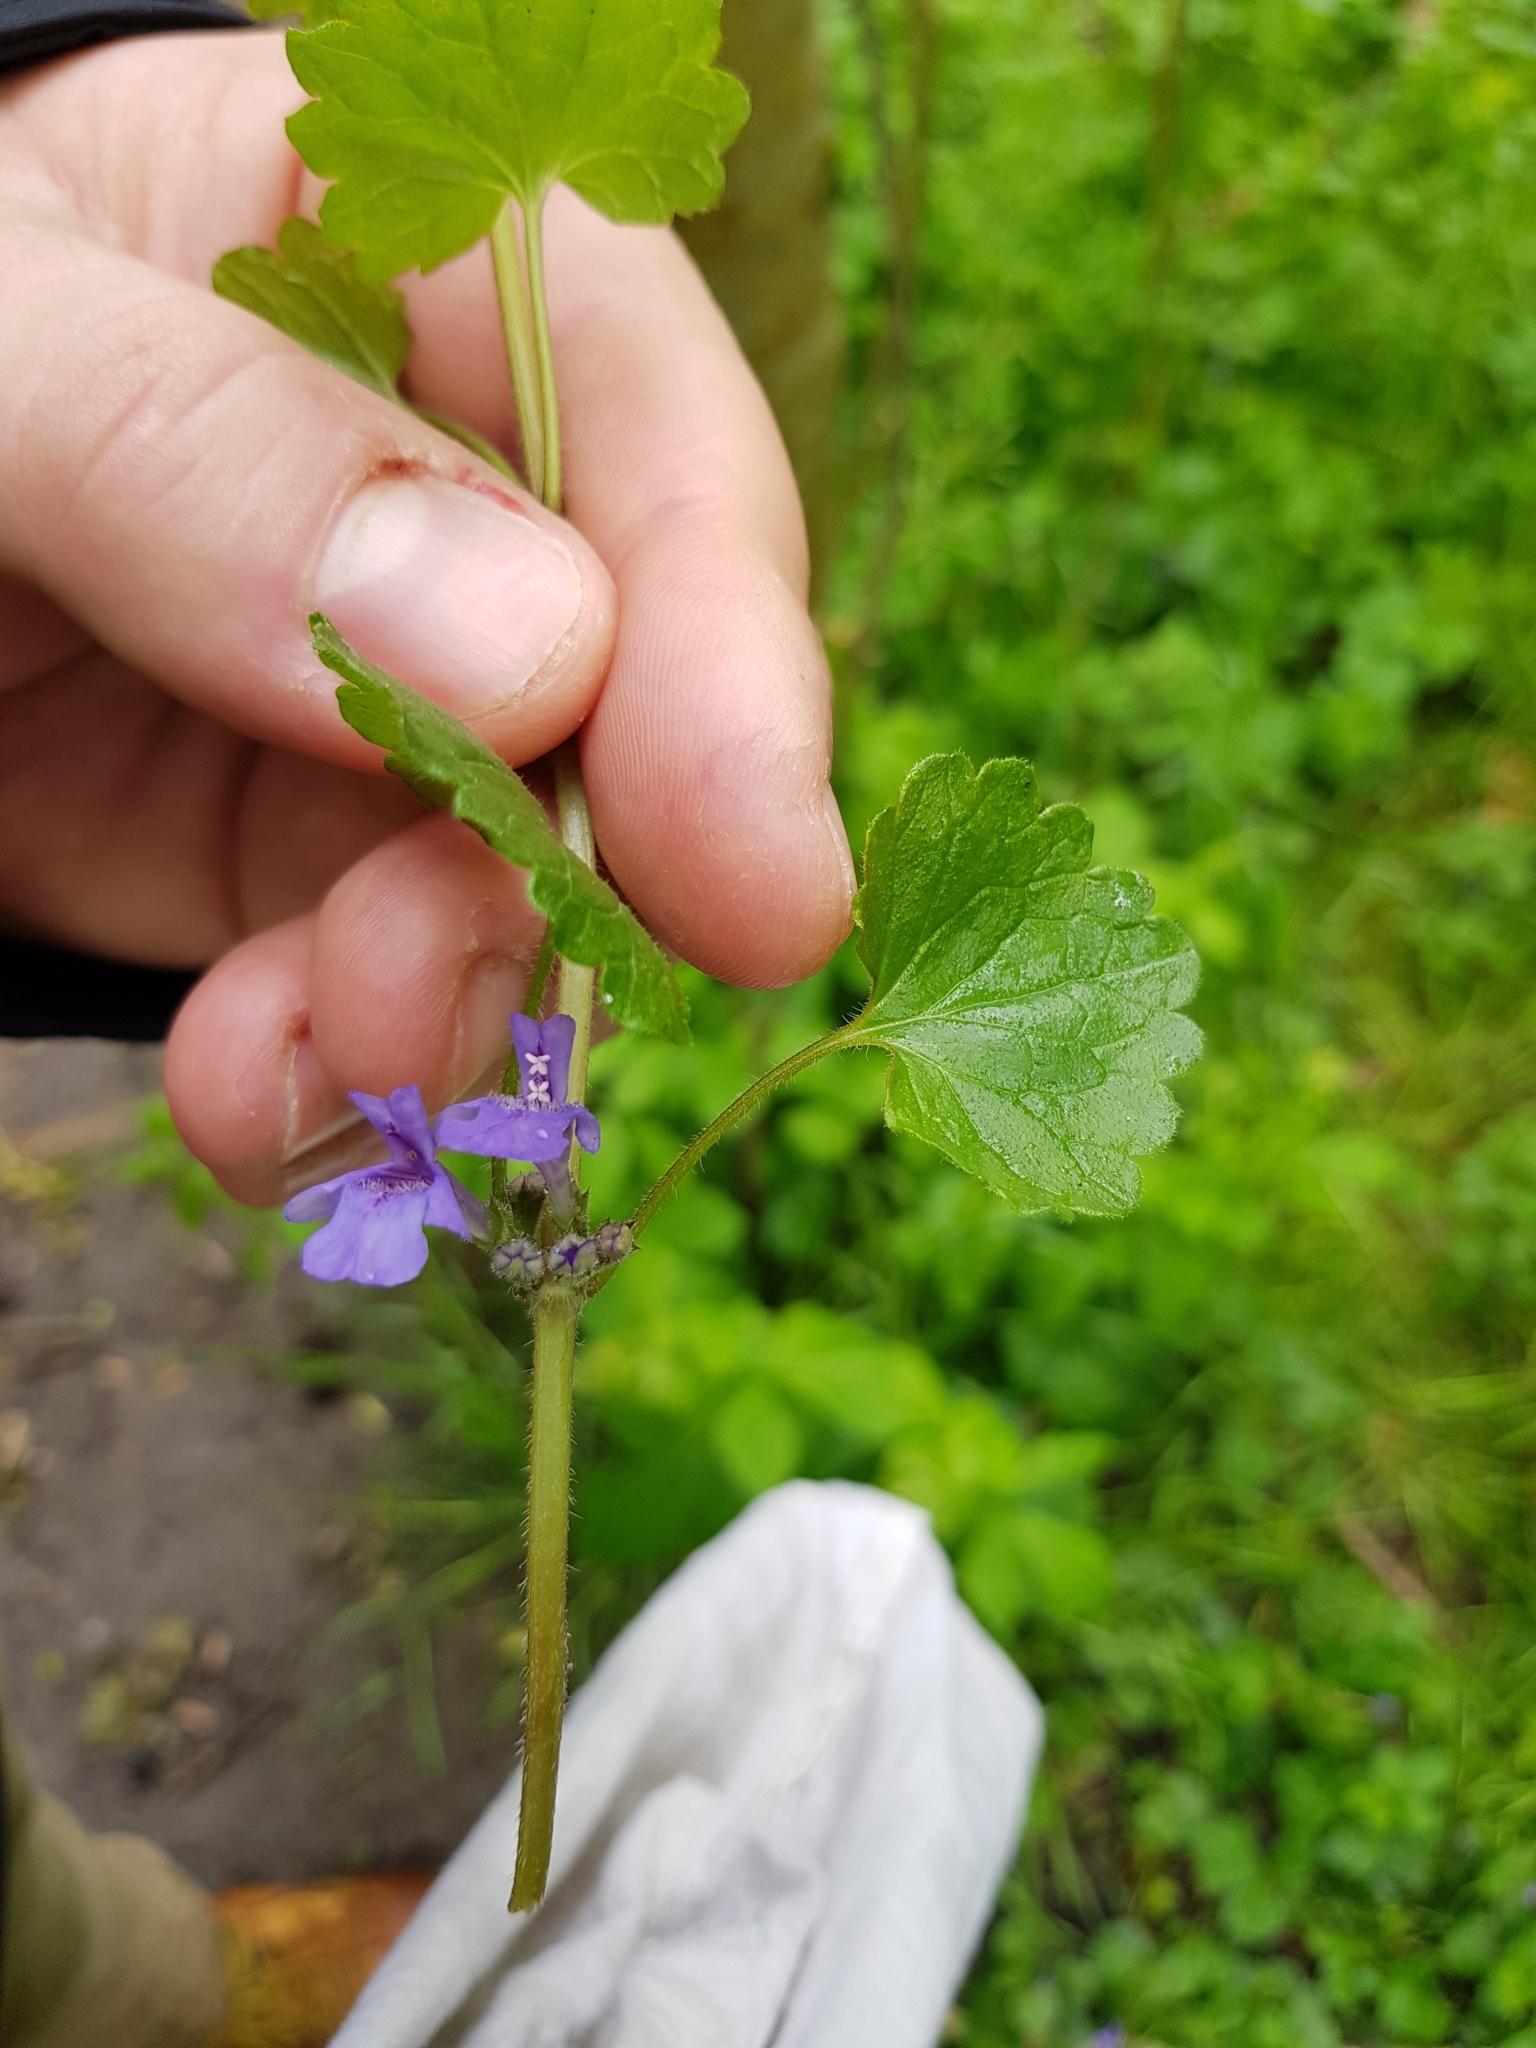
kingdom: Plantae
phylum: Tracheophyta
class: Magnoliopsida
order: Lamiales
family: Lamiaceae
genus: Glechoma
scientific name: Glechoma hederacea
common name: Ground ivy
